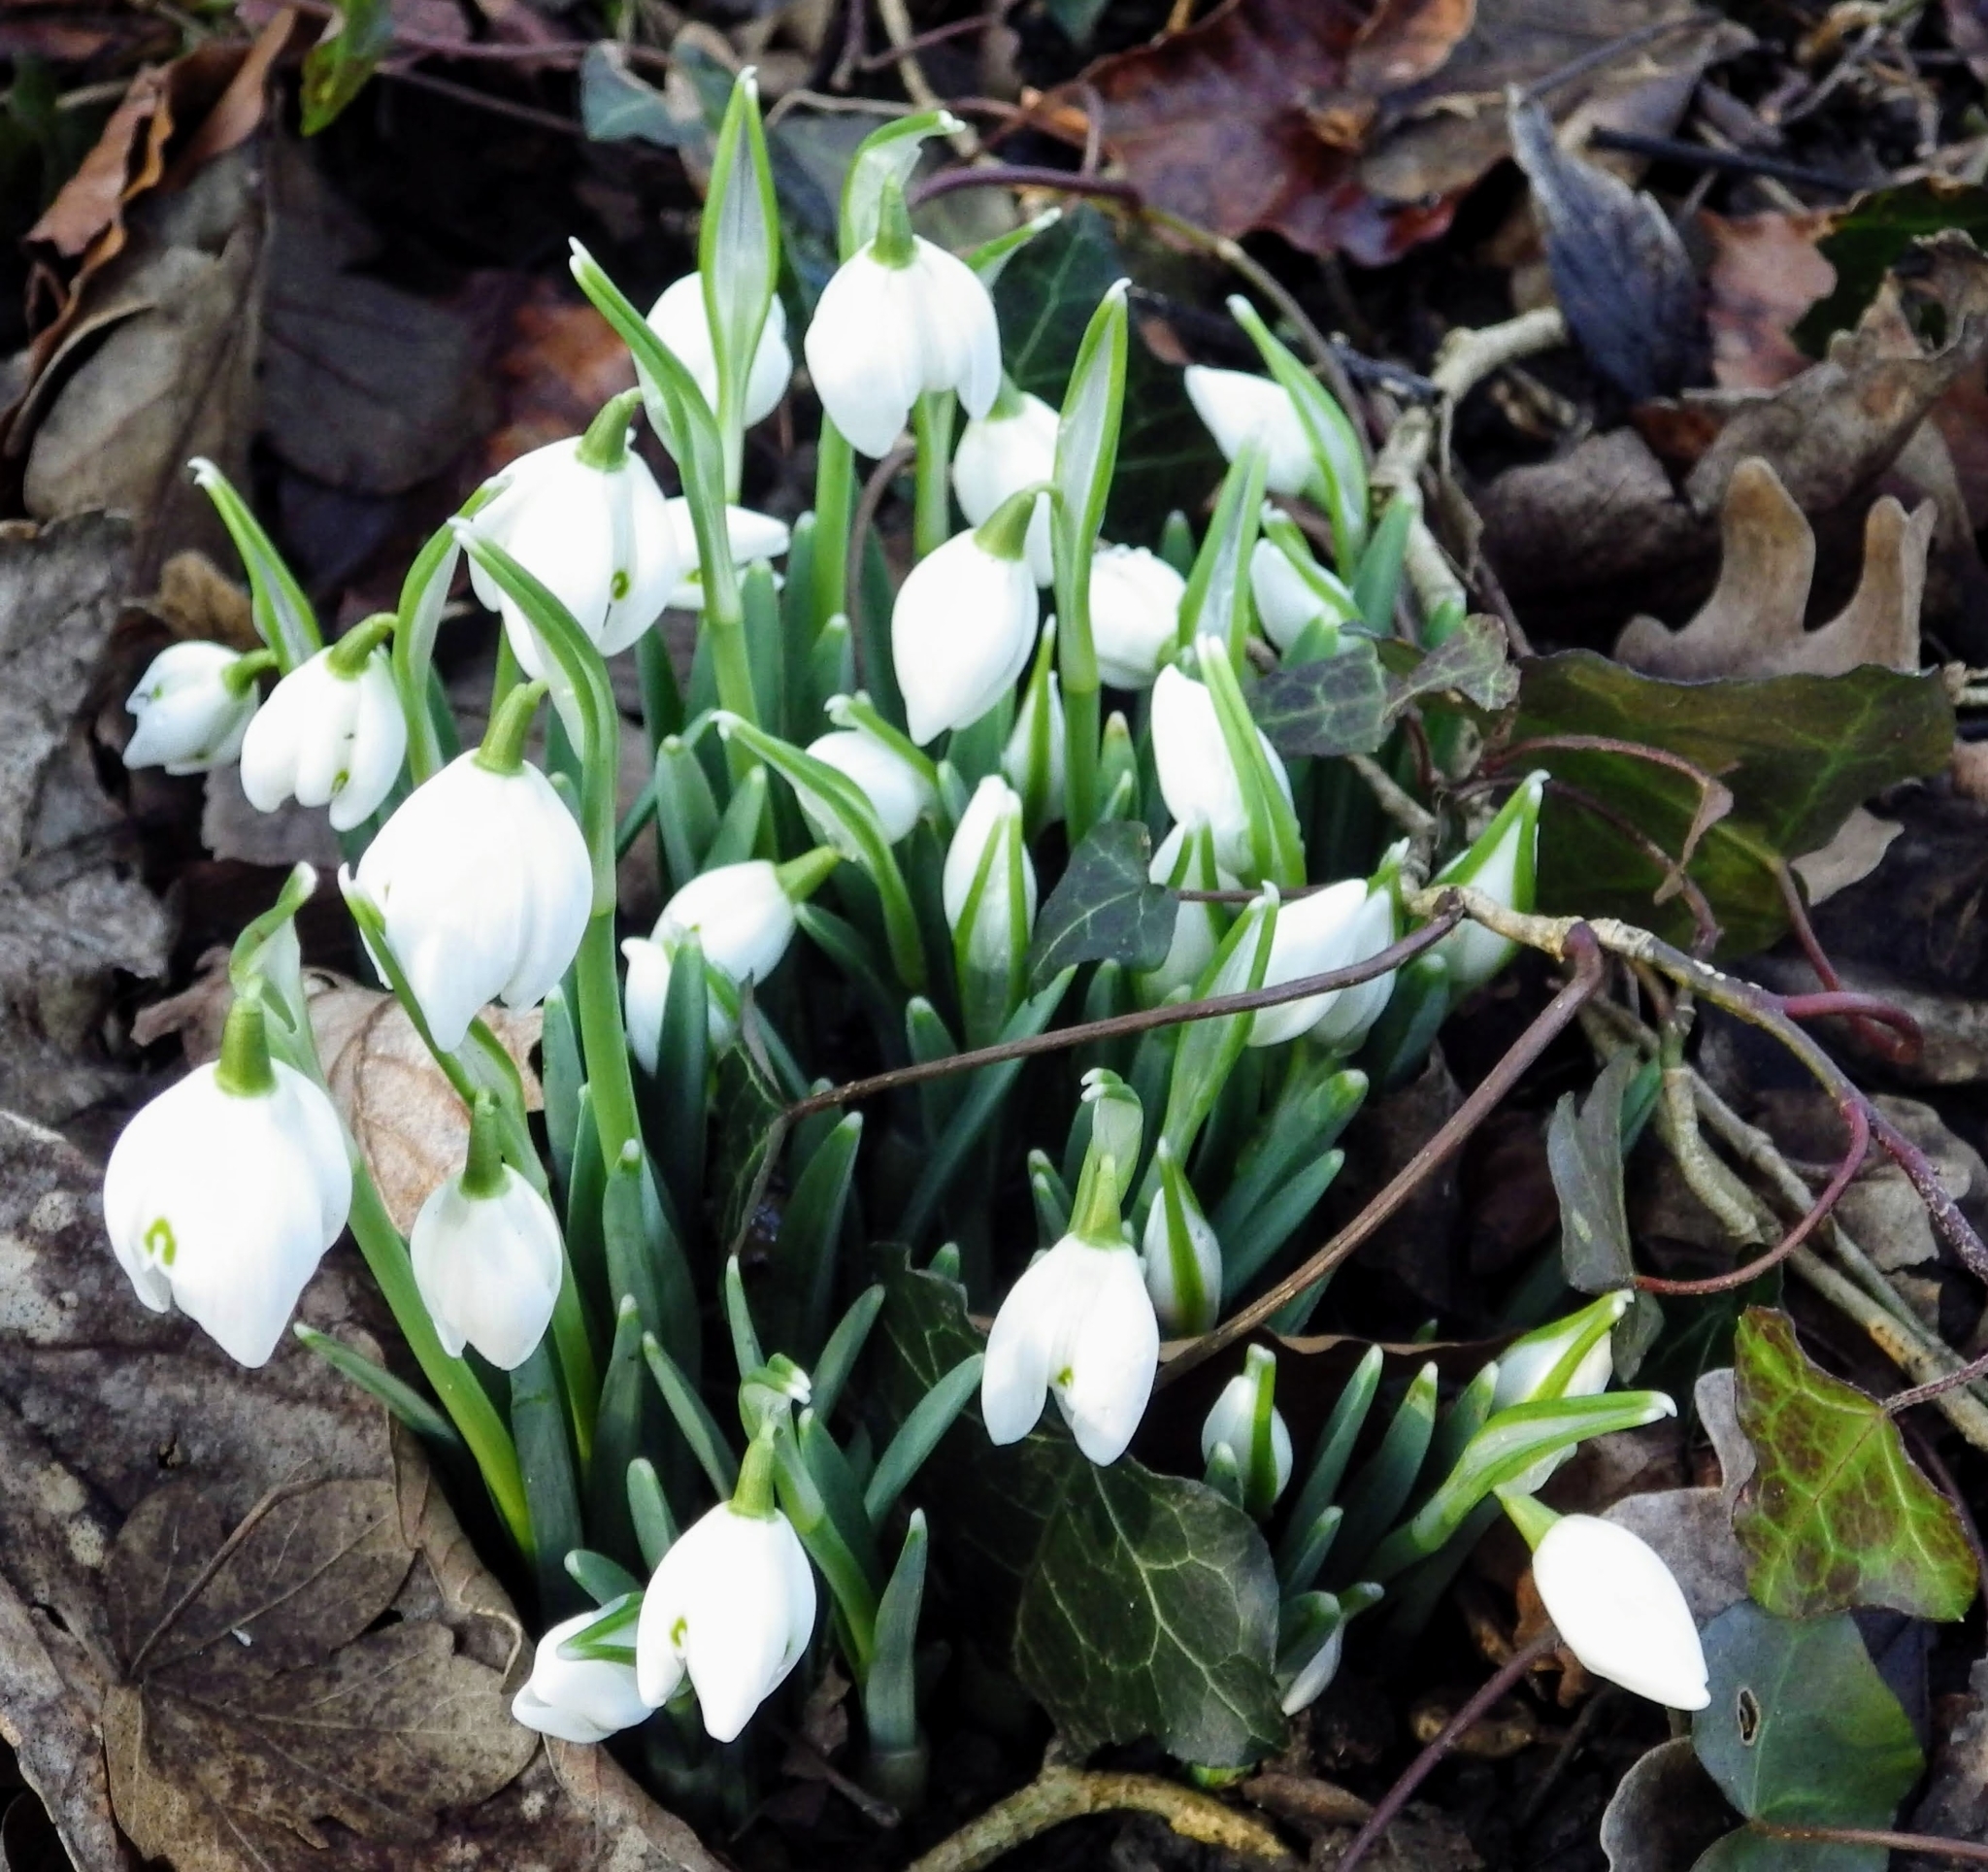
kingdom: Plantae
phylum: Tracheophyta
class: Liliopsida
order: Asparagales
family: Amaryllidaceae
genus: Galanthus
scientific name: Galanthus nivalis
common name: Snowdrop
